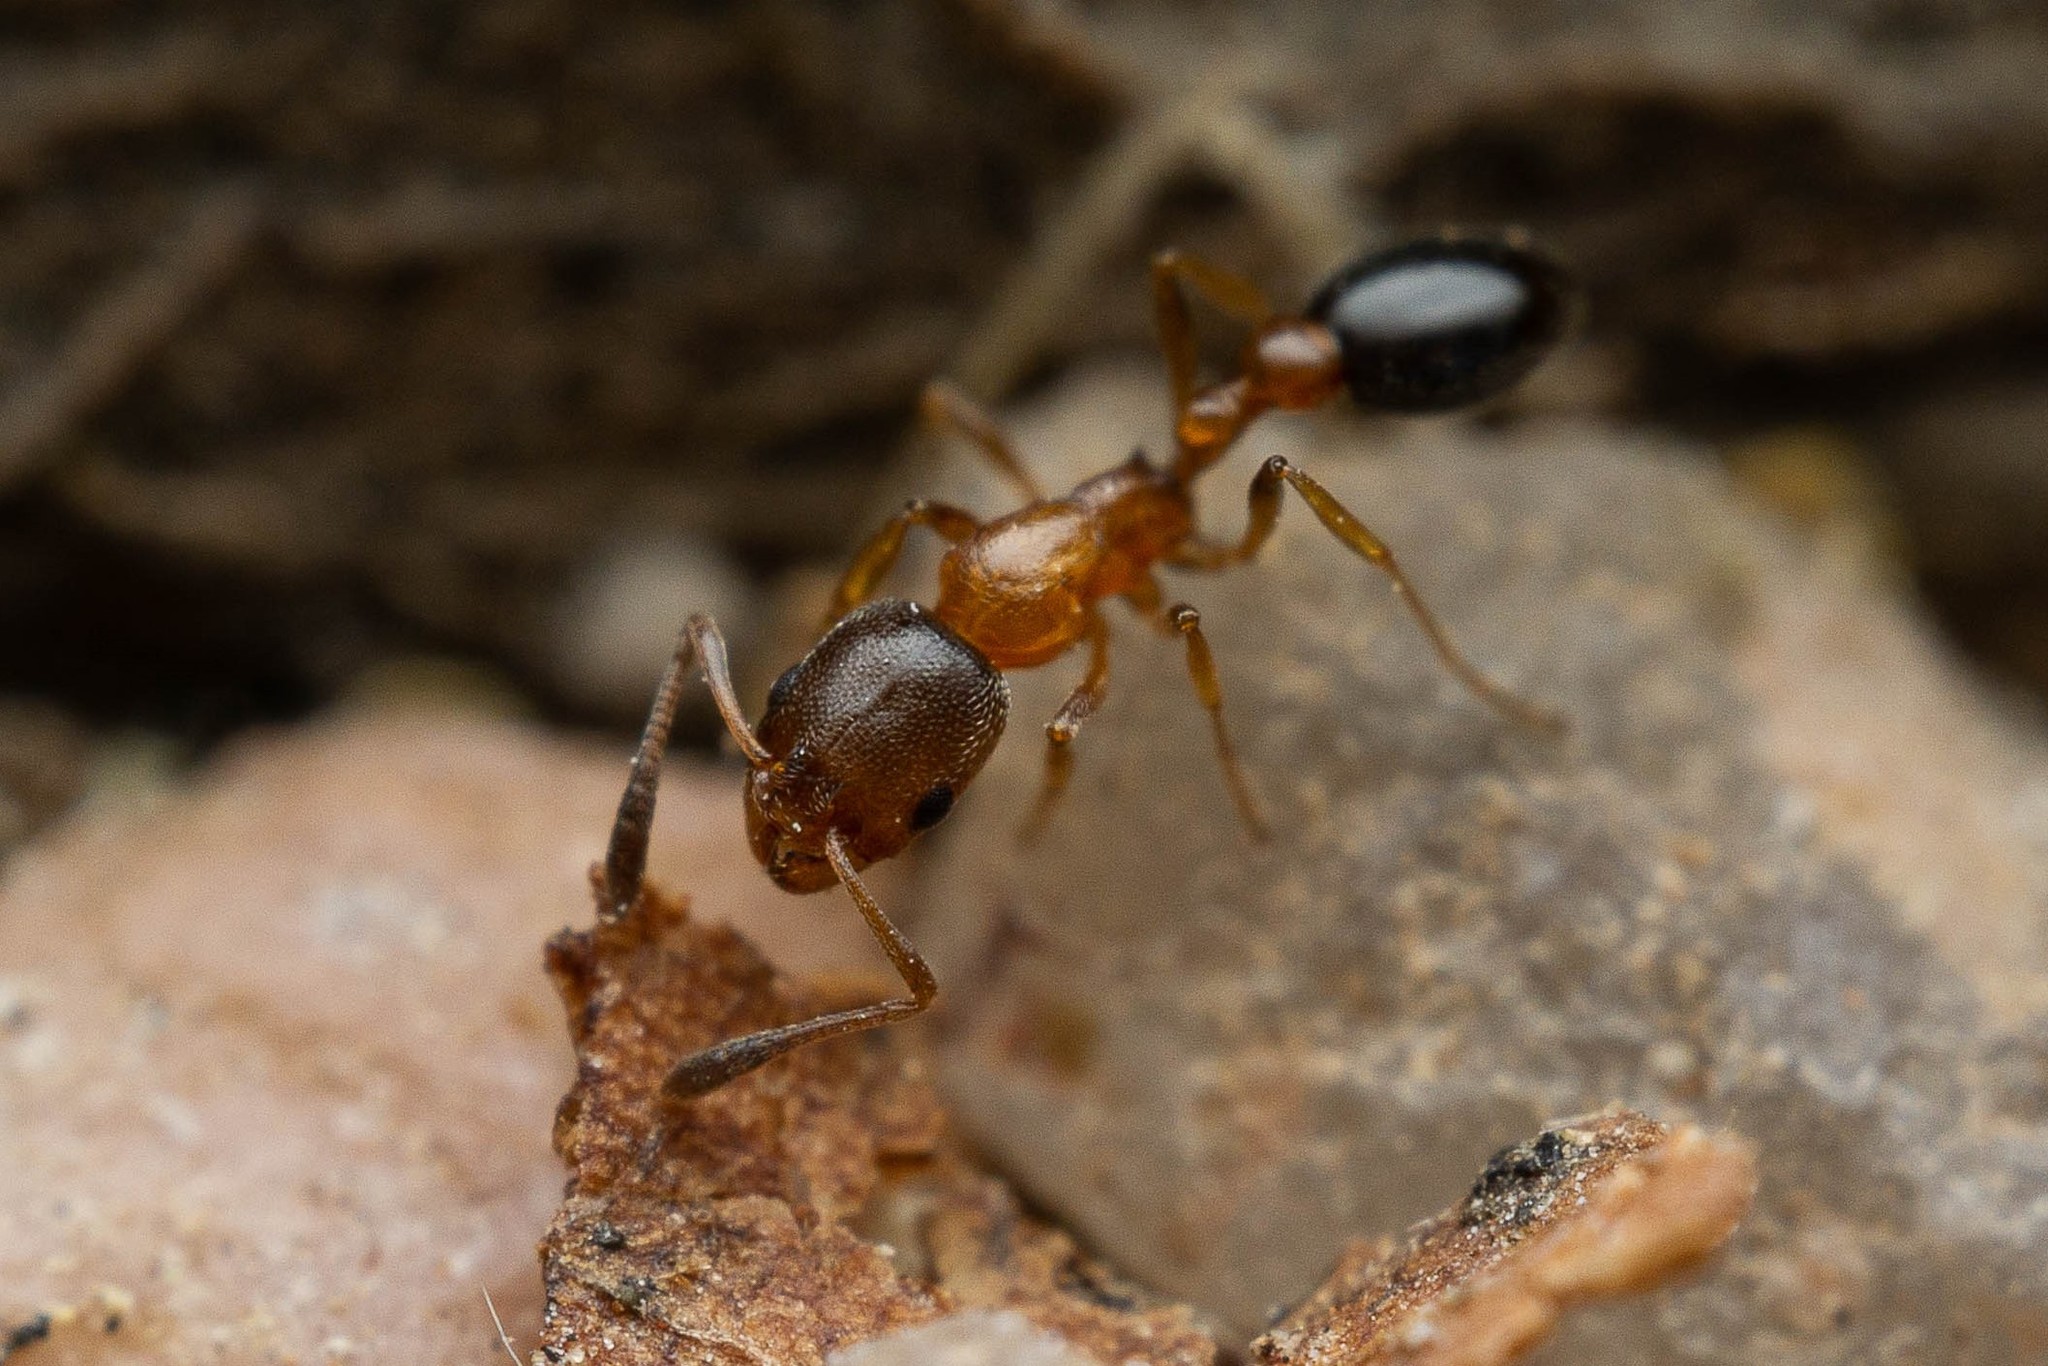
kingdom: Animalia
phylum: Arthropoda
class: Insecta
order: Hymenoptera
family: Formicidae
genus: Cardiocondyla
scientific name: Cardiocondyla mauritanica
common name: Sneaking ant
